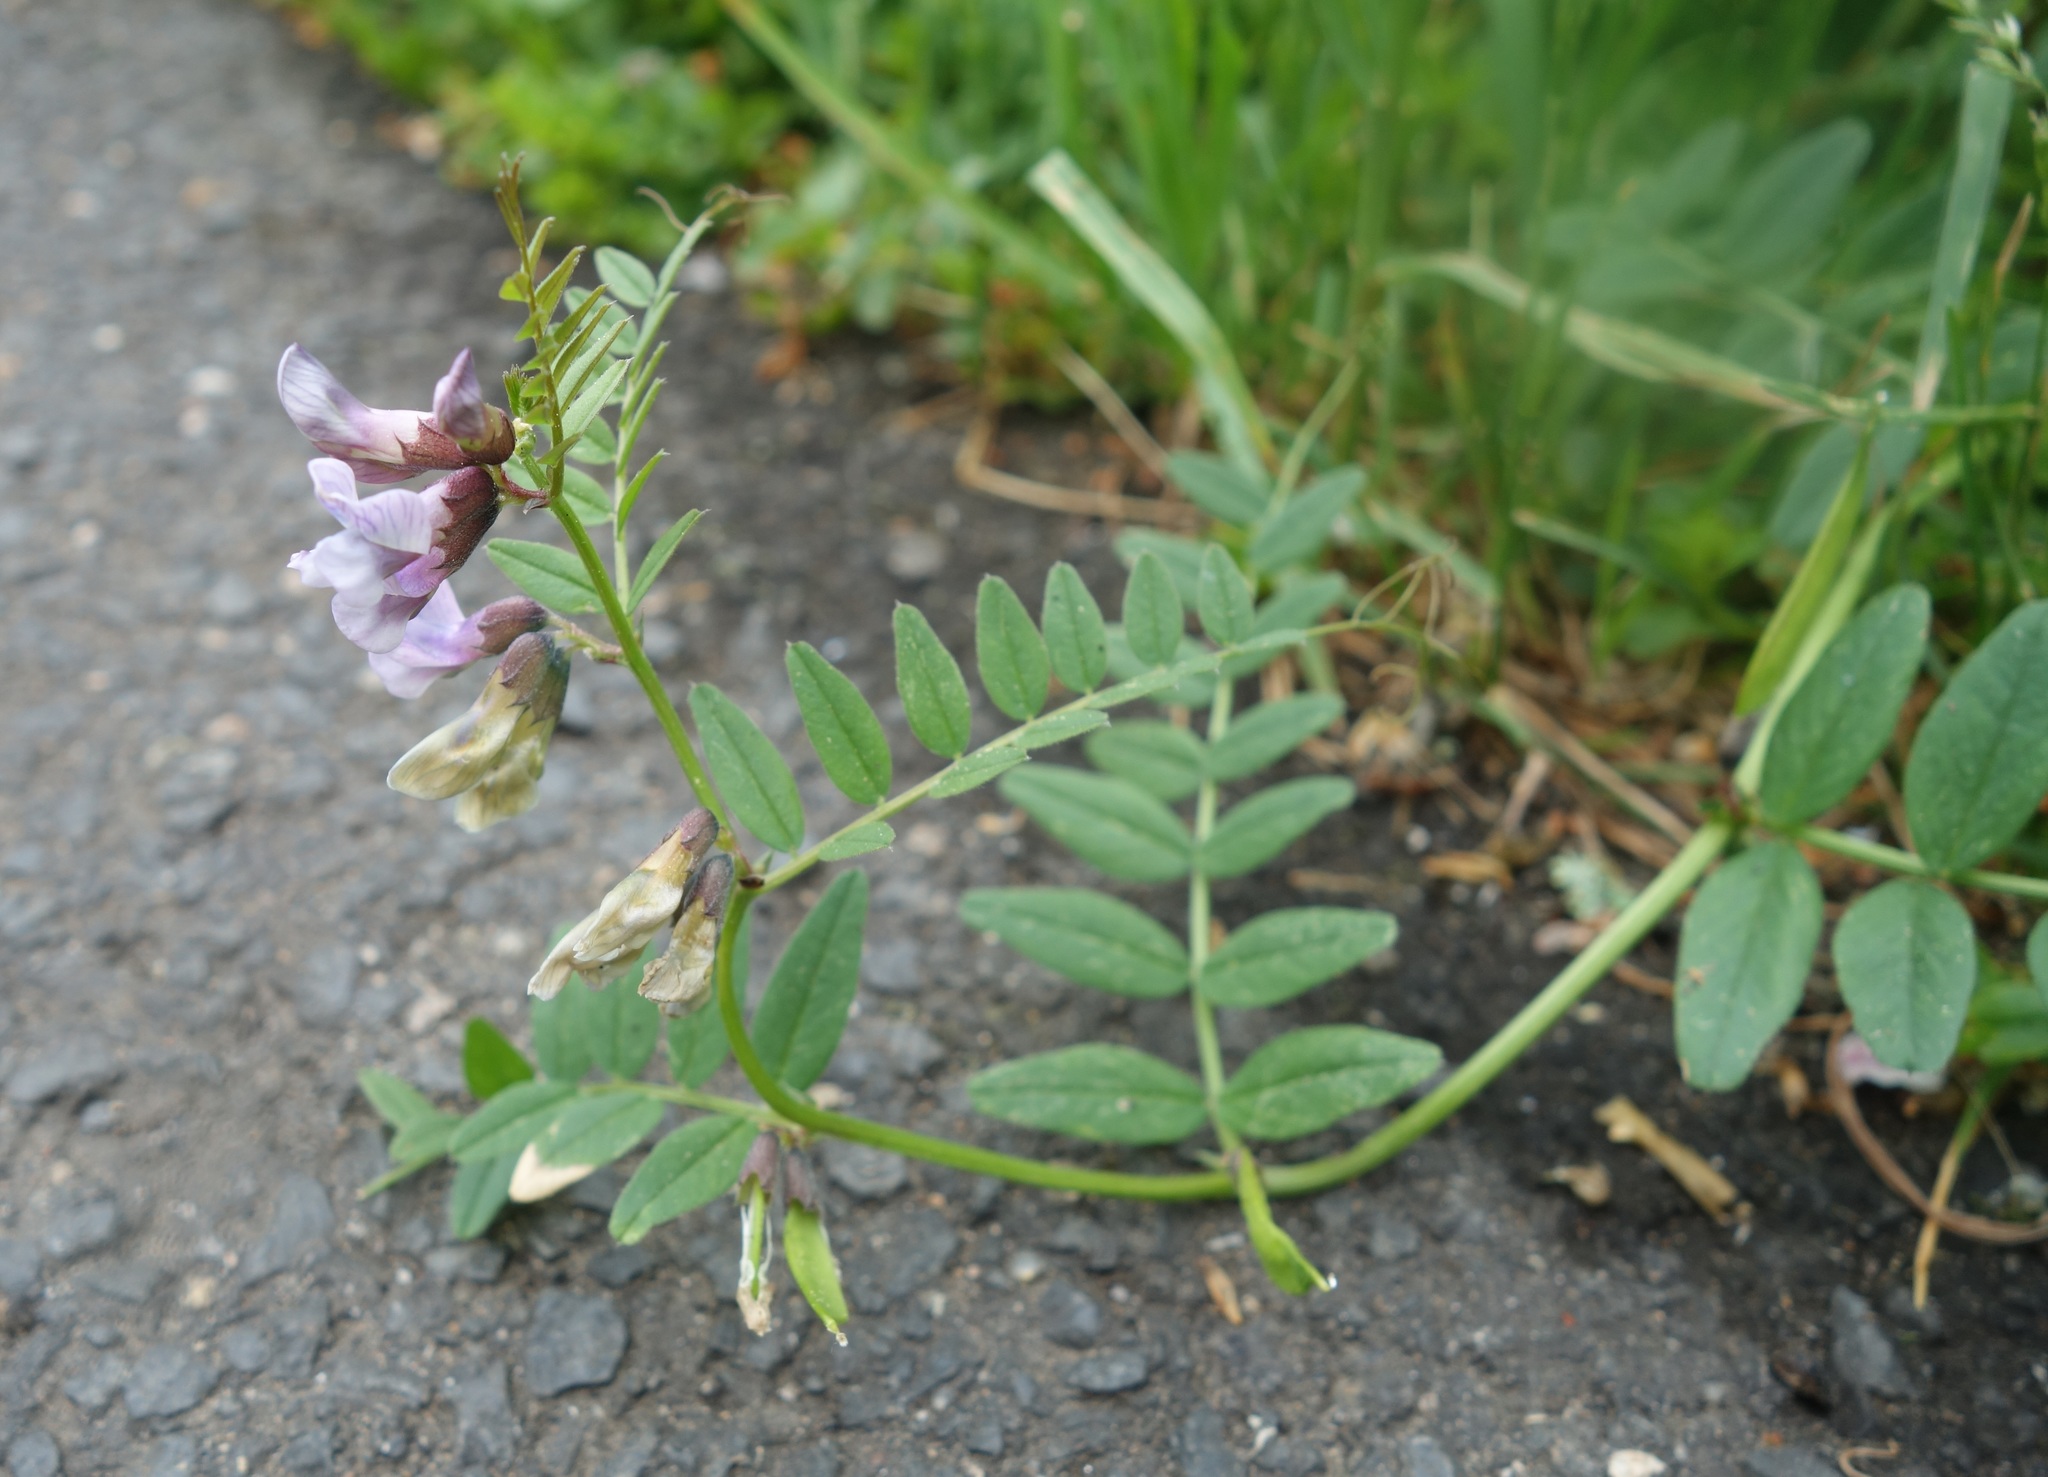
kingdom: Plantae
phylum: Tracheophyta
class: Magnoliopsida
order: Fabales
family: Fabaceae
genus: Vicia
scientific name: Vicia sepium
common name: Bush vetch
